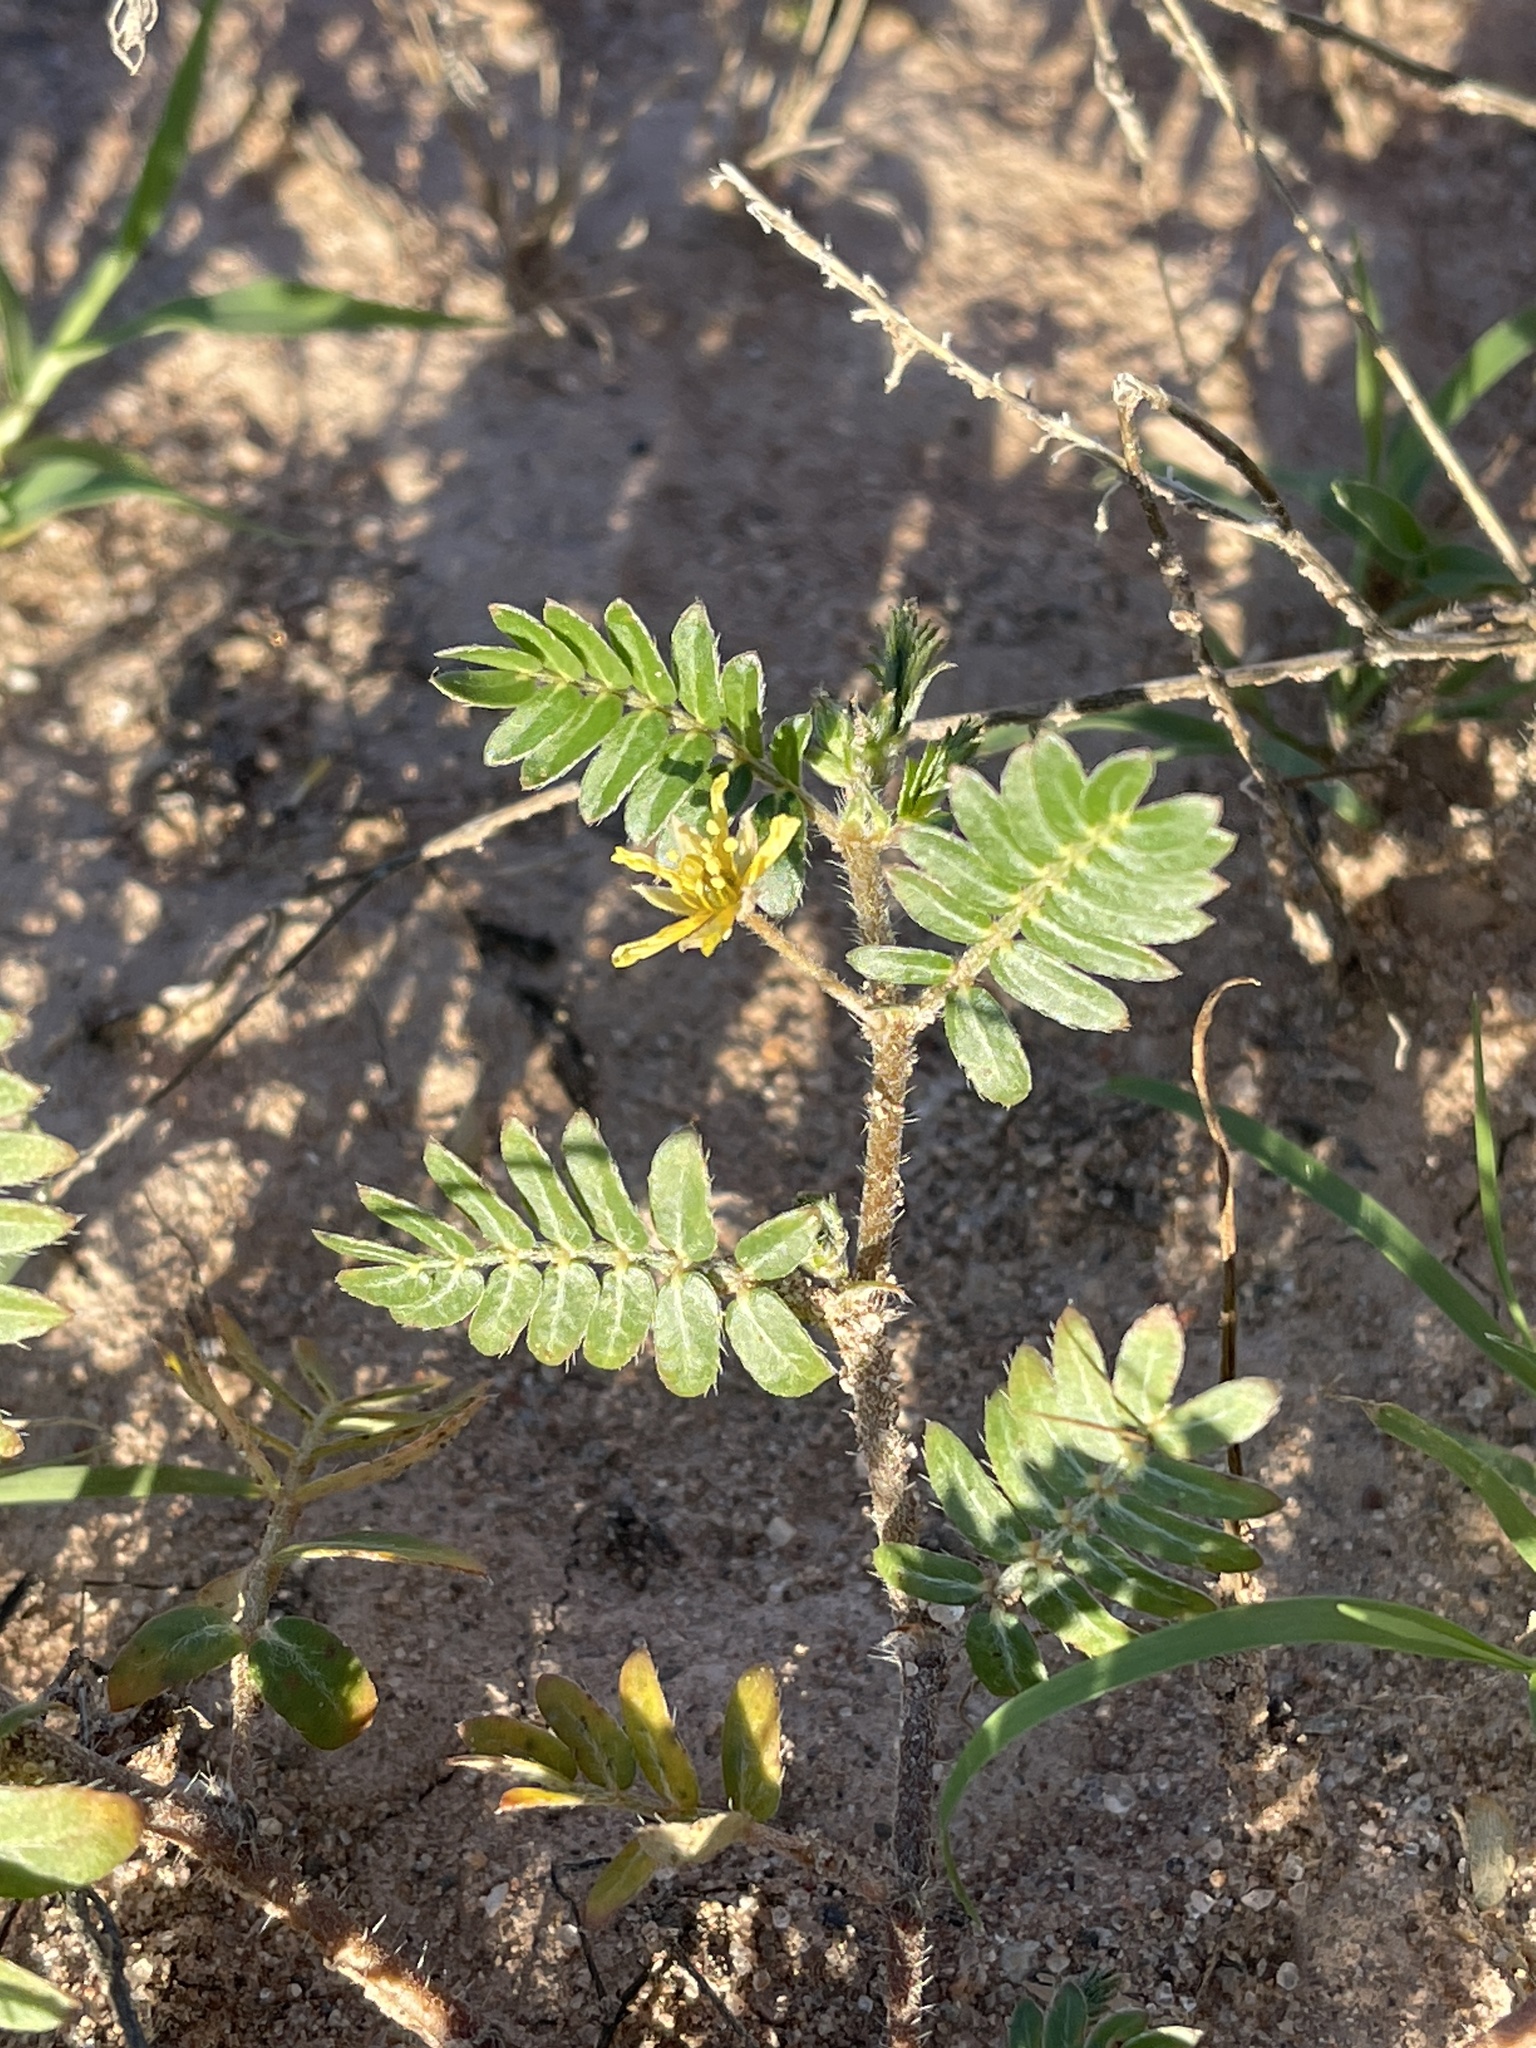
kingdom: Plantae
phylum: Tracheophyta
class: Magnoliopsida
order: Zygophyllales
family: Zygophyllaceae
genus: Tribulus
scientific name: Tribulus terrestris
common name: Puncturevine
